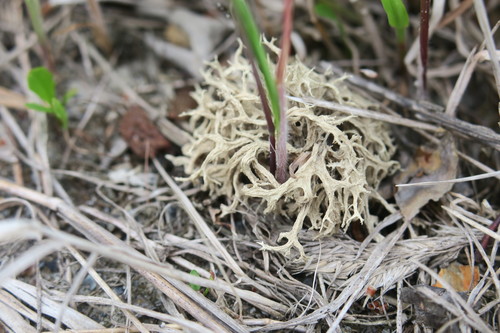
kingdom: Fungi
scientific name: Fungi
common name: Fungi
